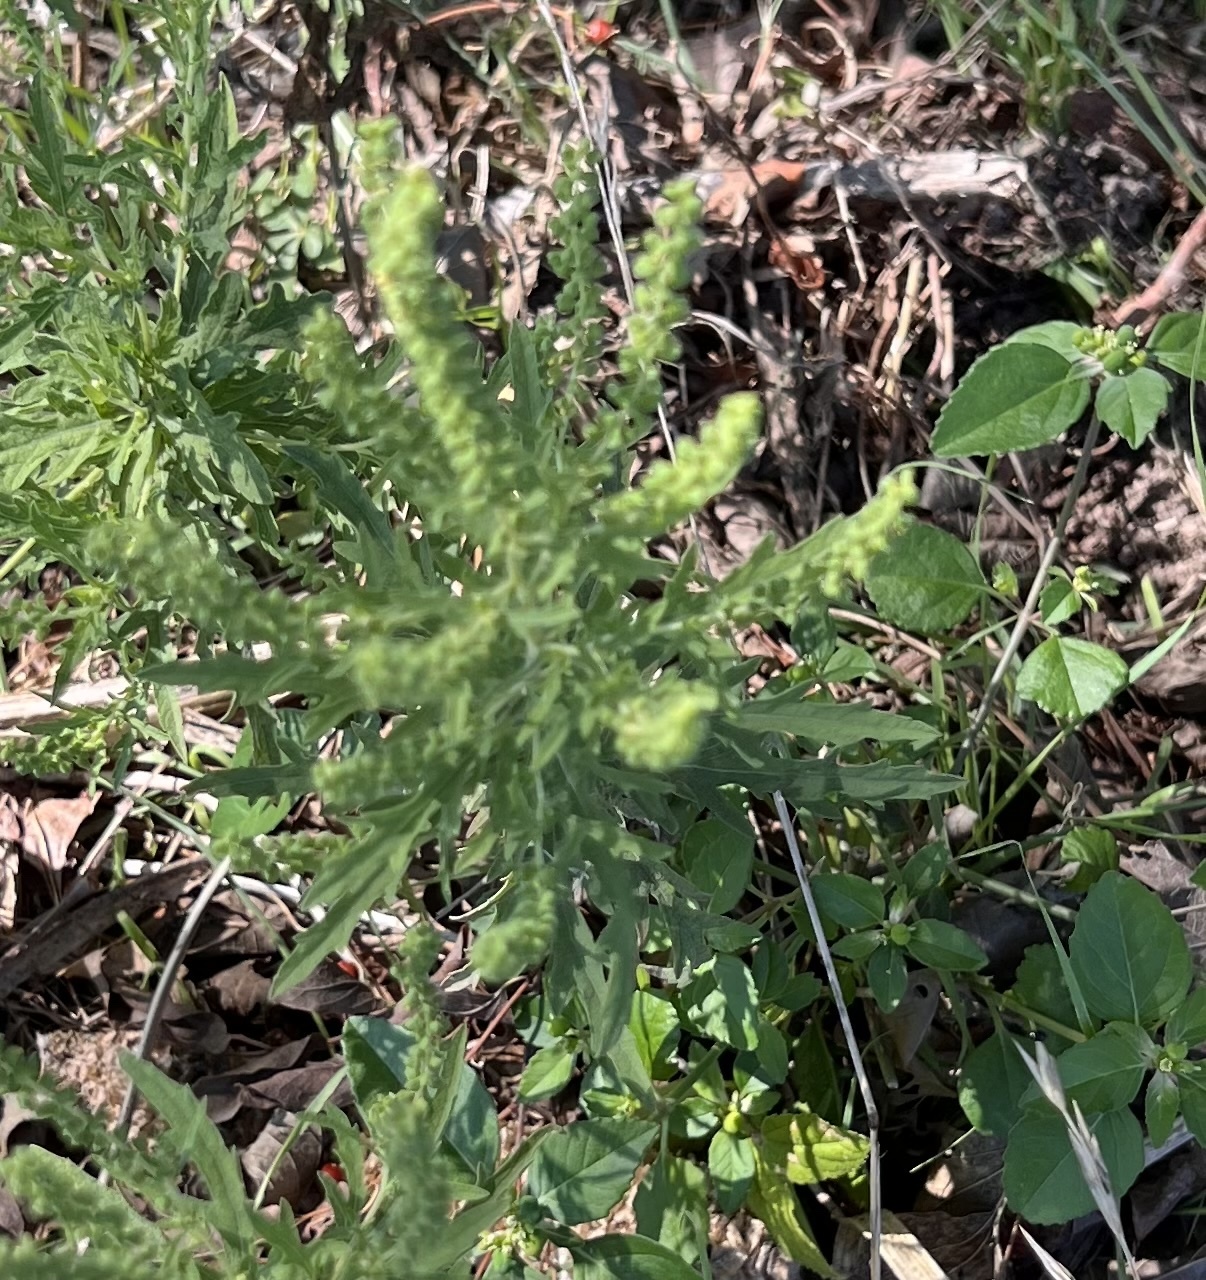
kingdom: Plantae
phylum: Tracheophyta
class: Magnoliopsida
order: Asterales
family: Asteraceae
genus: Ambrosia
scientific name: Ambrosia psilostachya
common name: Perennial ragweed
